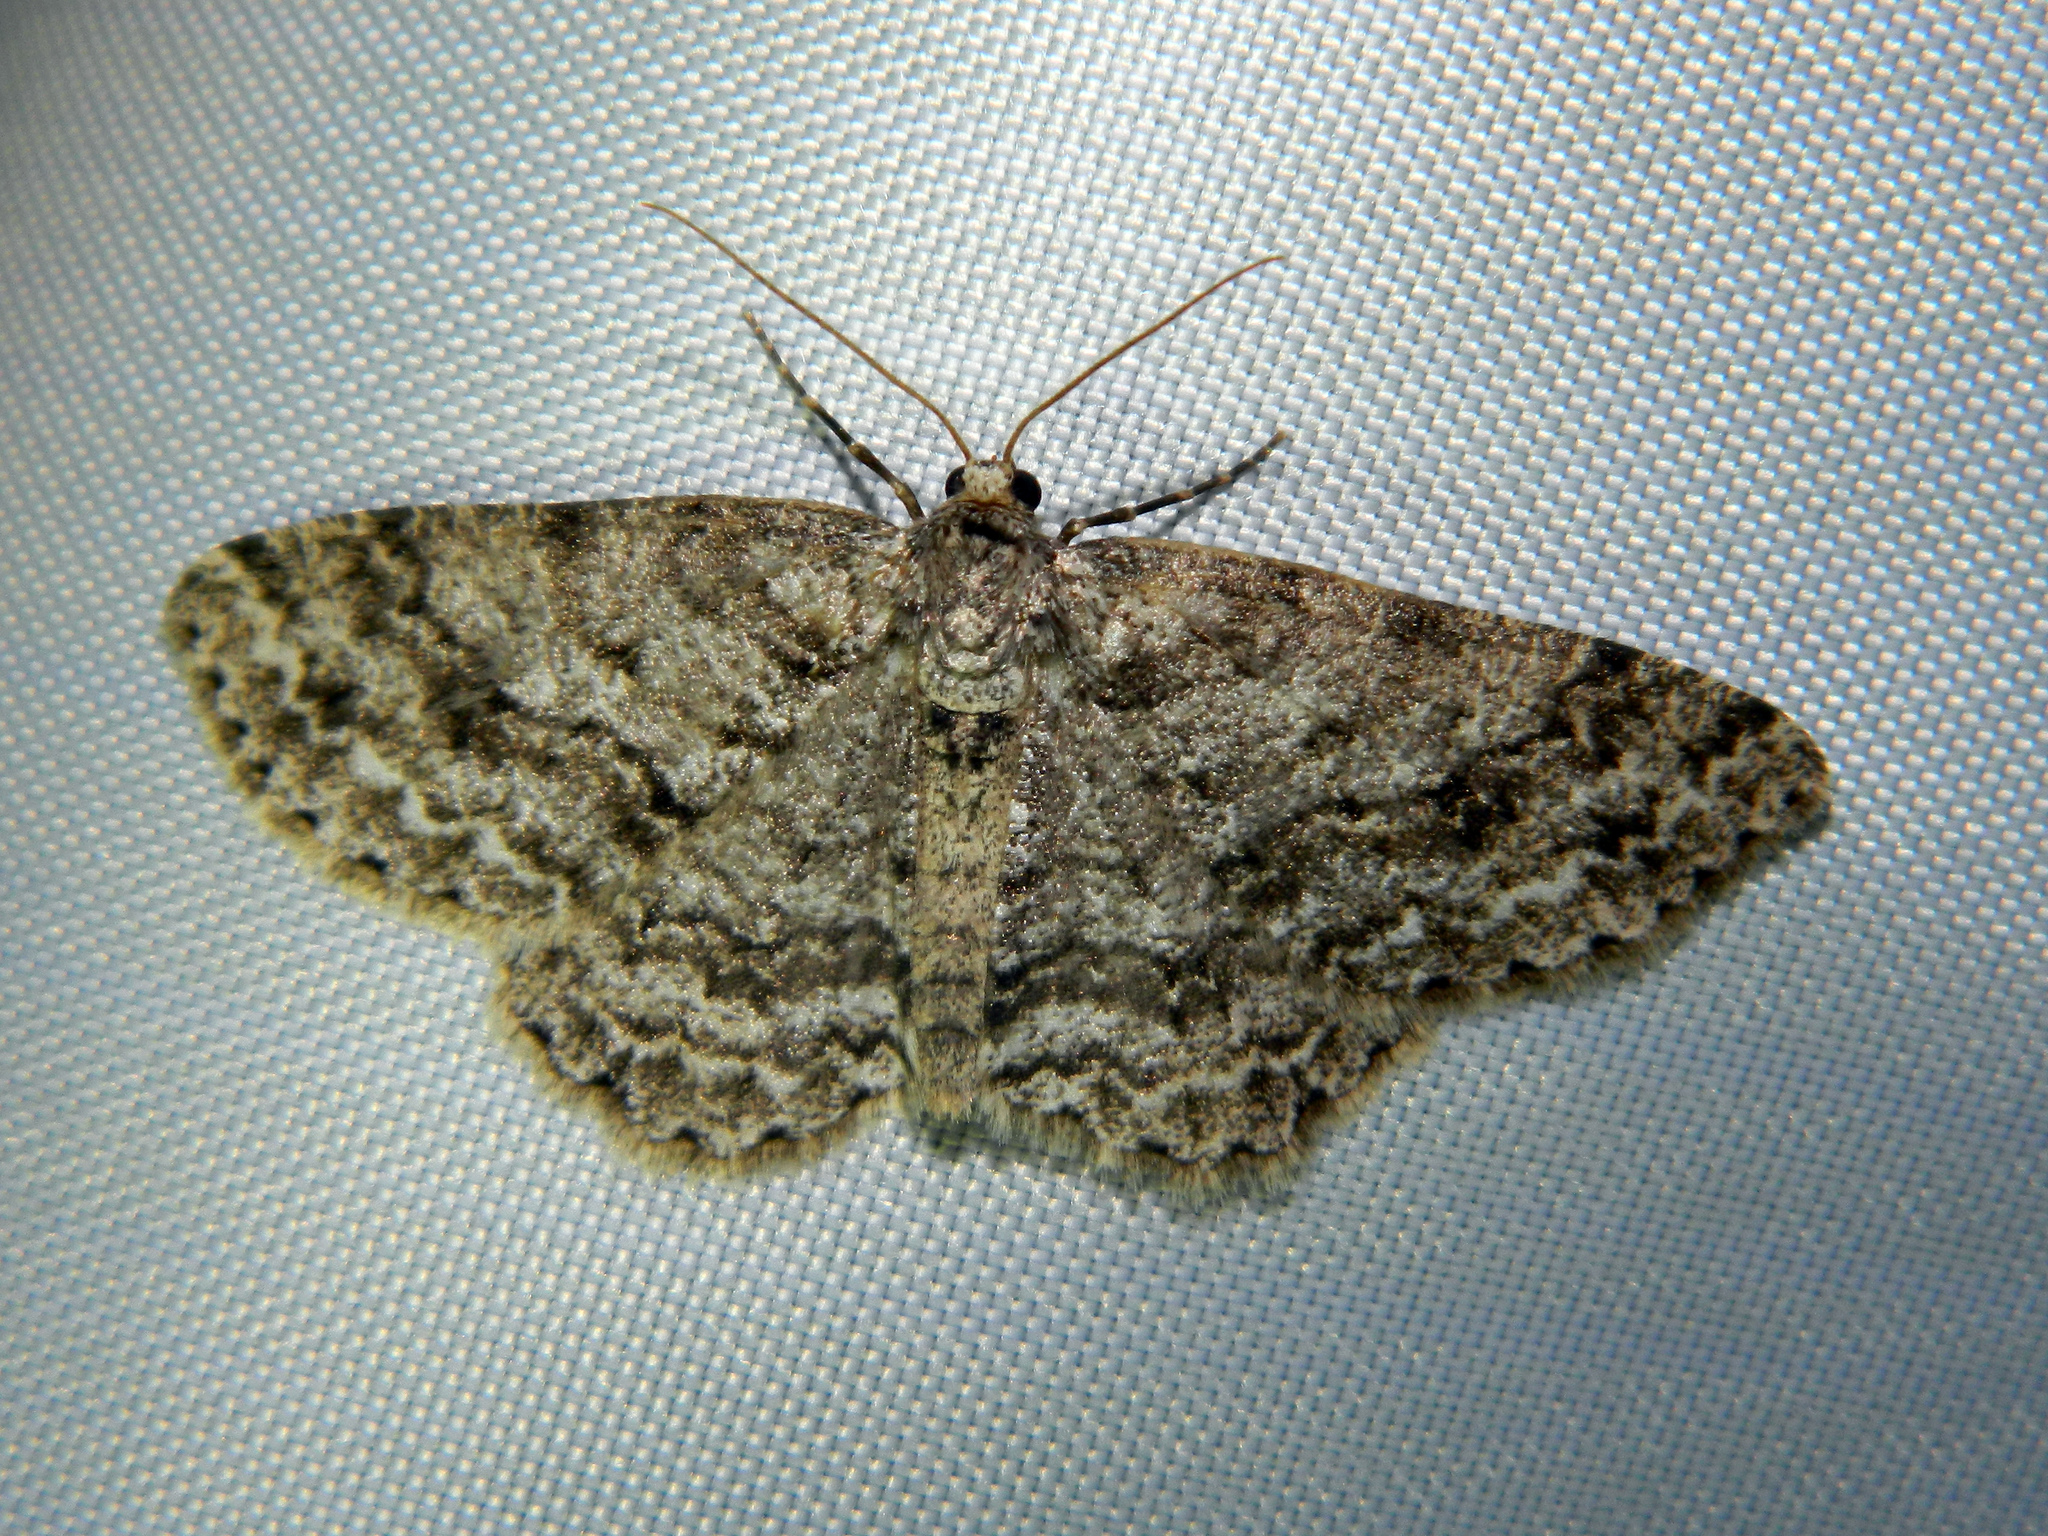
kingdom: Animalia
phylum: Arthropoda
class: Insecta
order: Lepidoptera
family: Geometridae
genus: Ectropis
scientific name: Ectropis crepuscularia
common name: Engrailed
